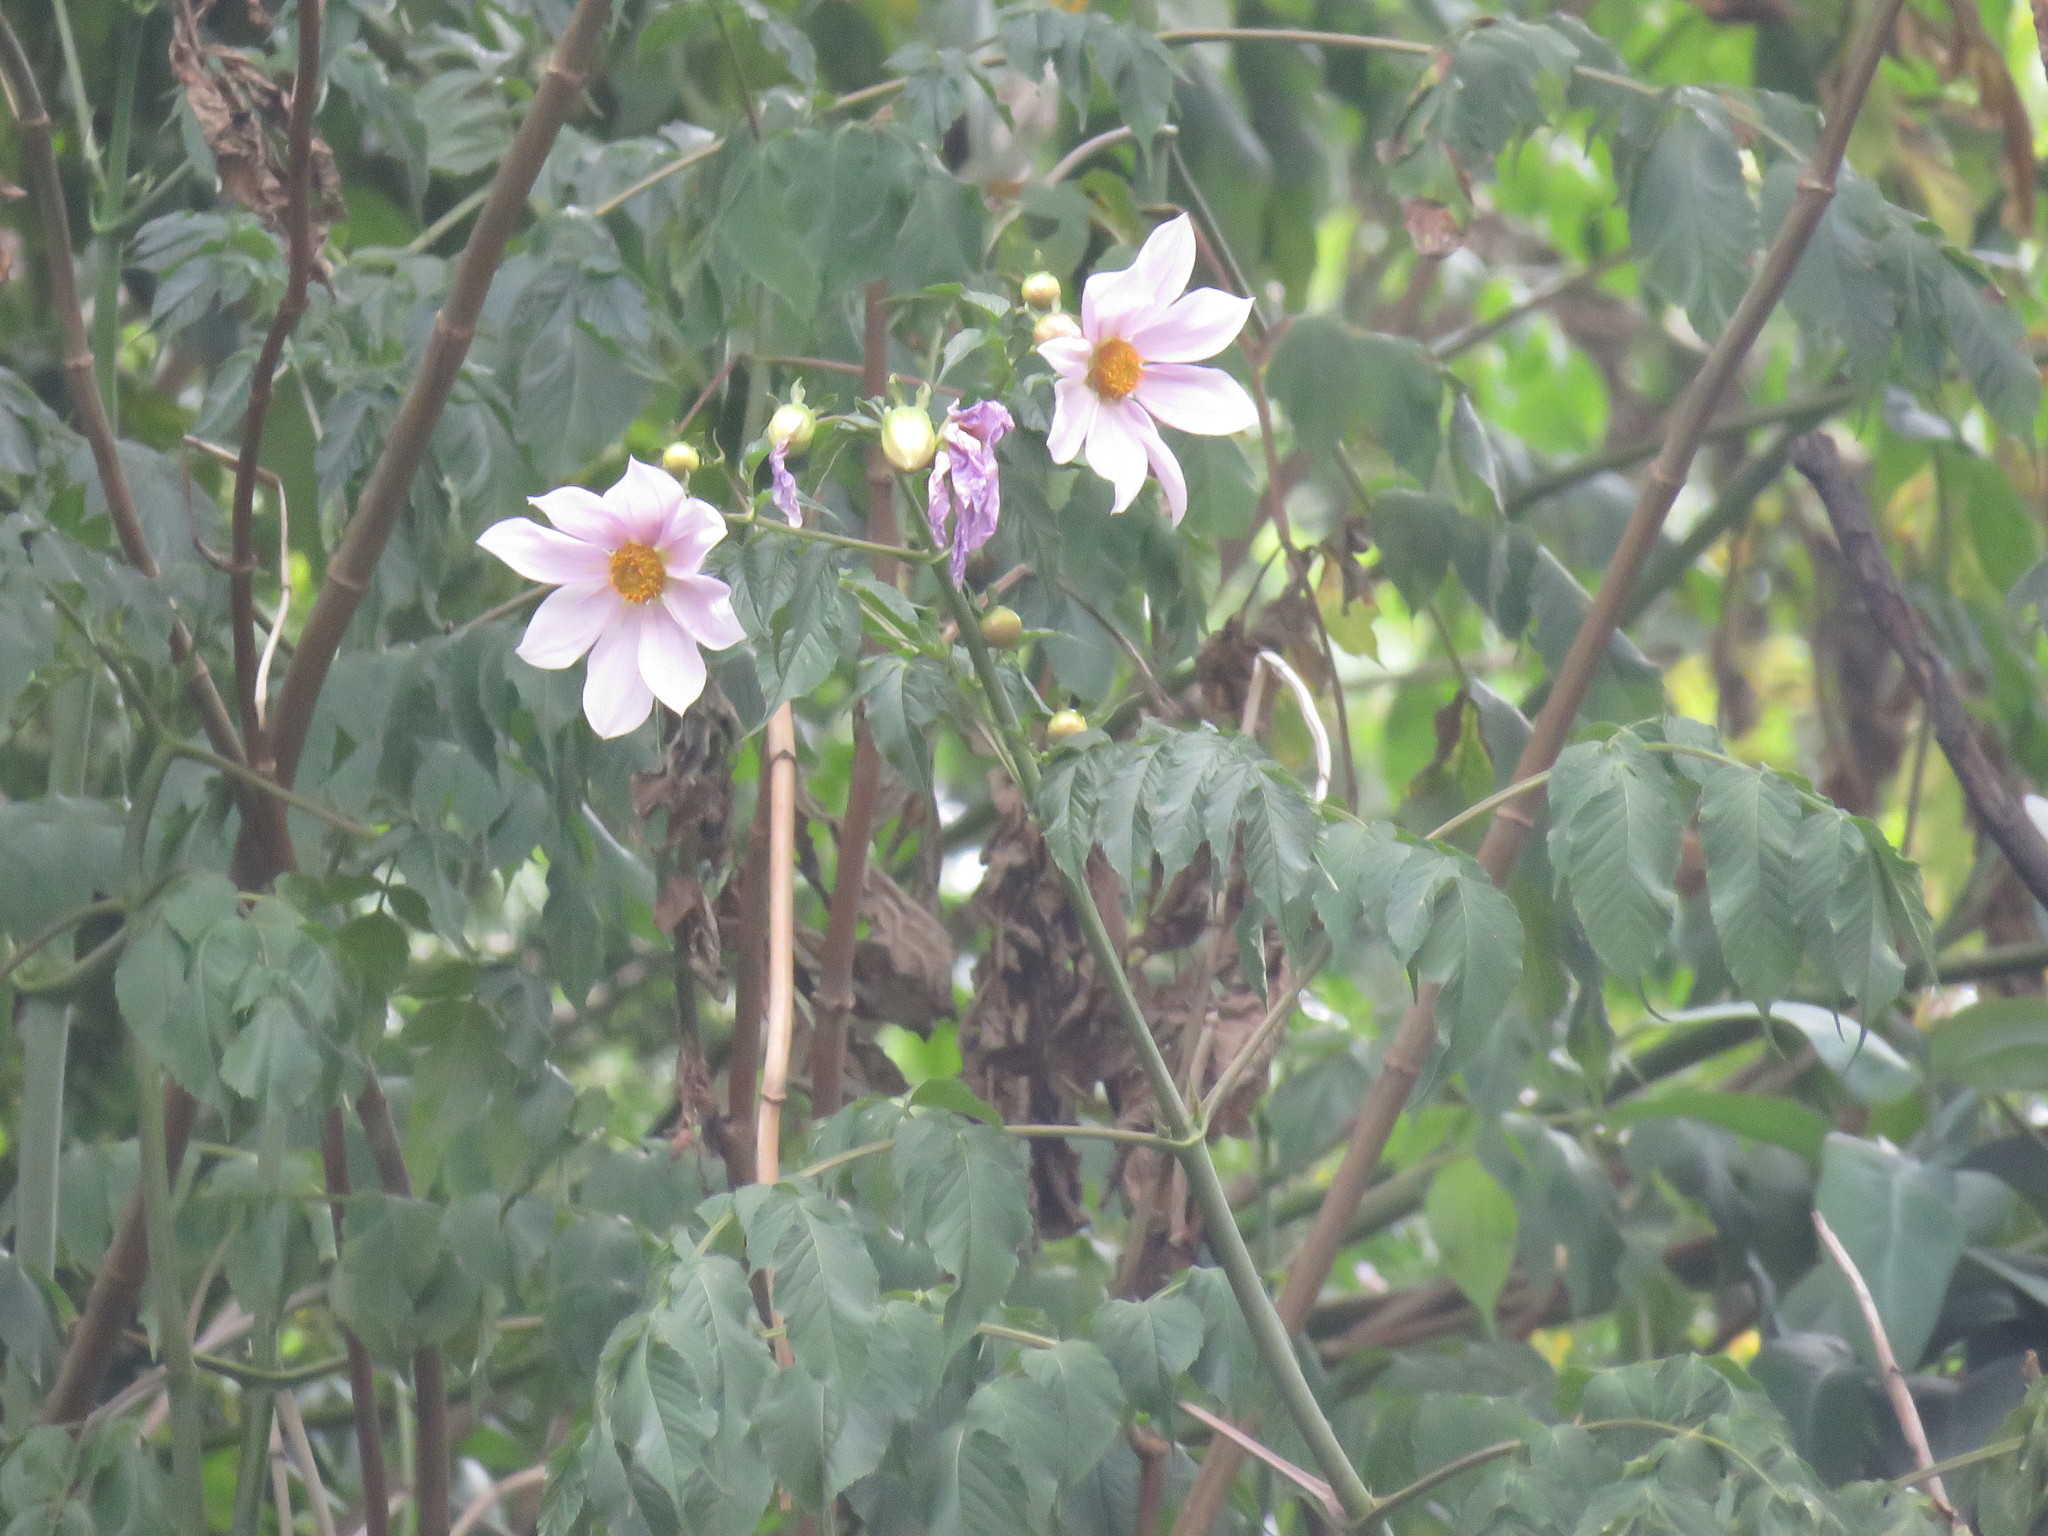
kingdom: Plantae
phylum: Tracheophyta
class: Magnoliopsida
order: Asterales
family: Asteraceae
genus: Dahlia
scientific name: Dahlia imperialis
